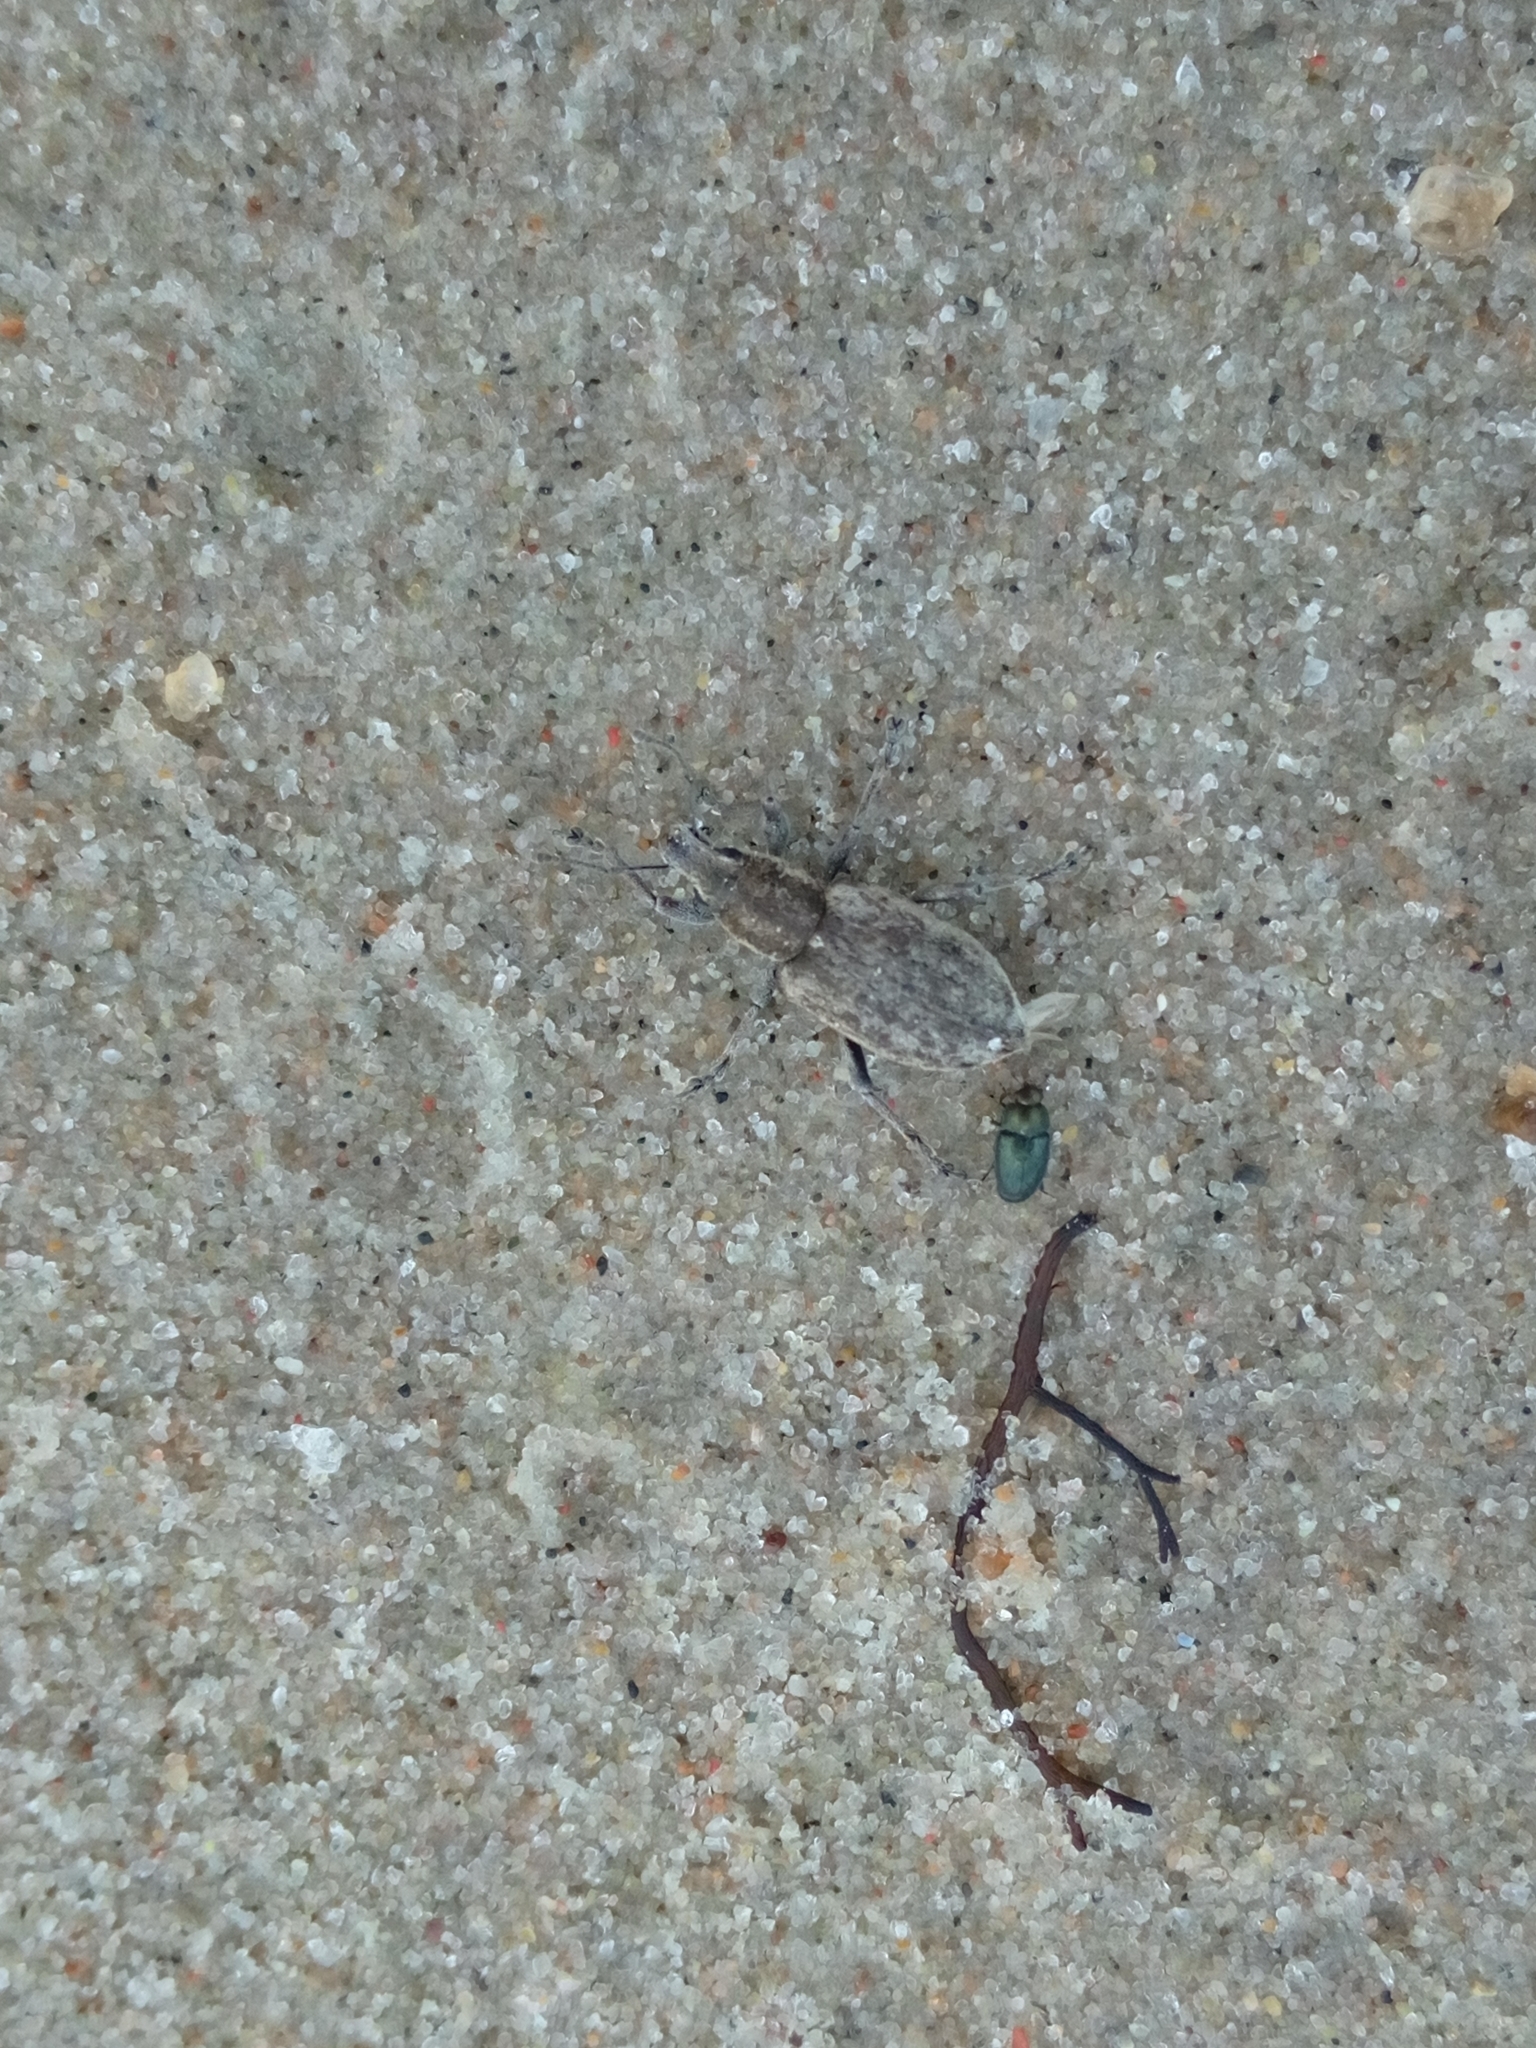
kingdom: Animalia
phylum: Arthropoda
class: Insecta
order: Coleoptera
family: Curculionidae
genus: Tanymecus
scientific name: Tanymecus palliatus
